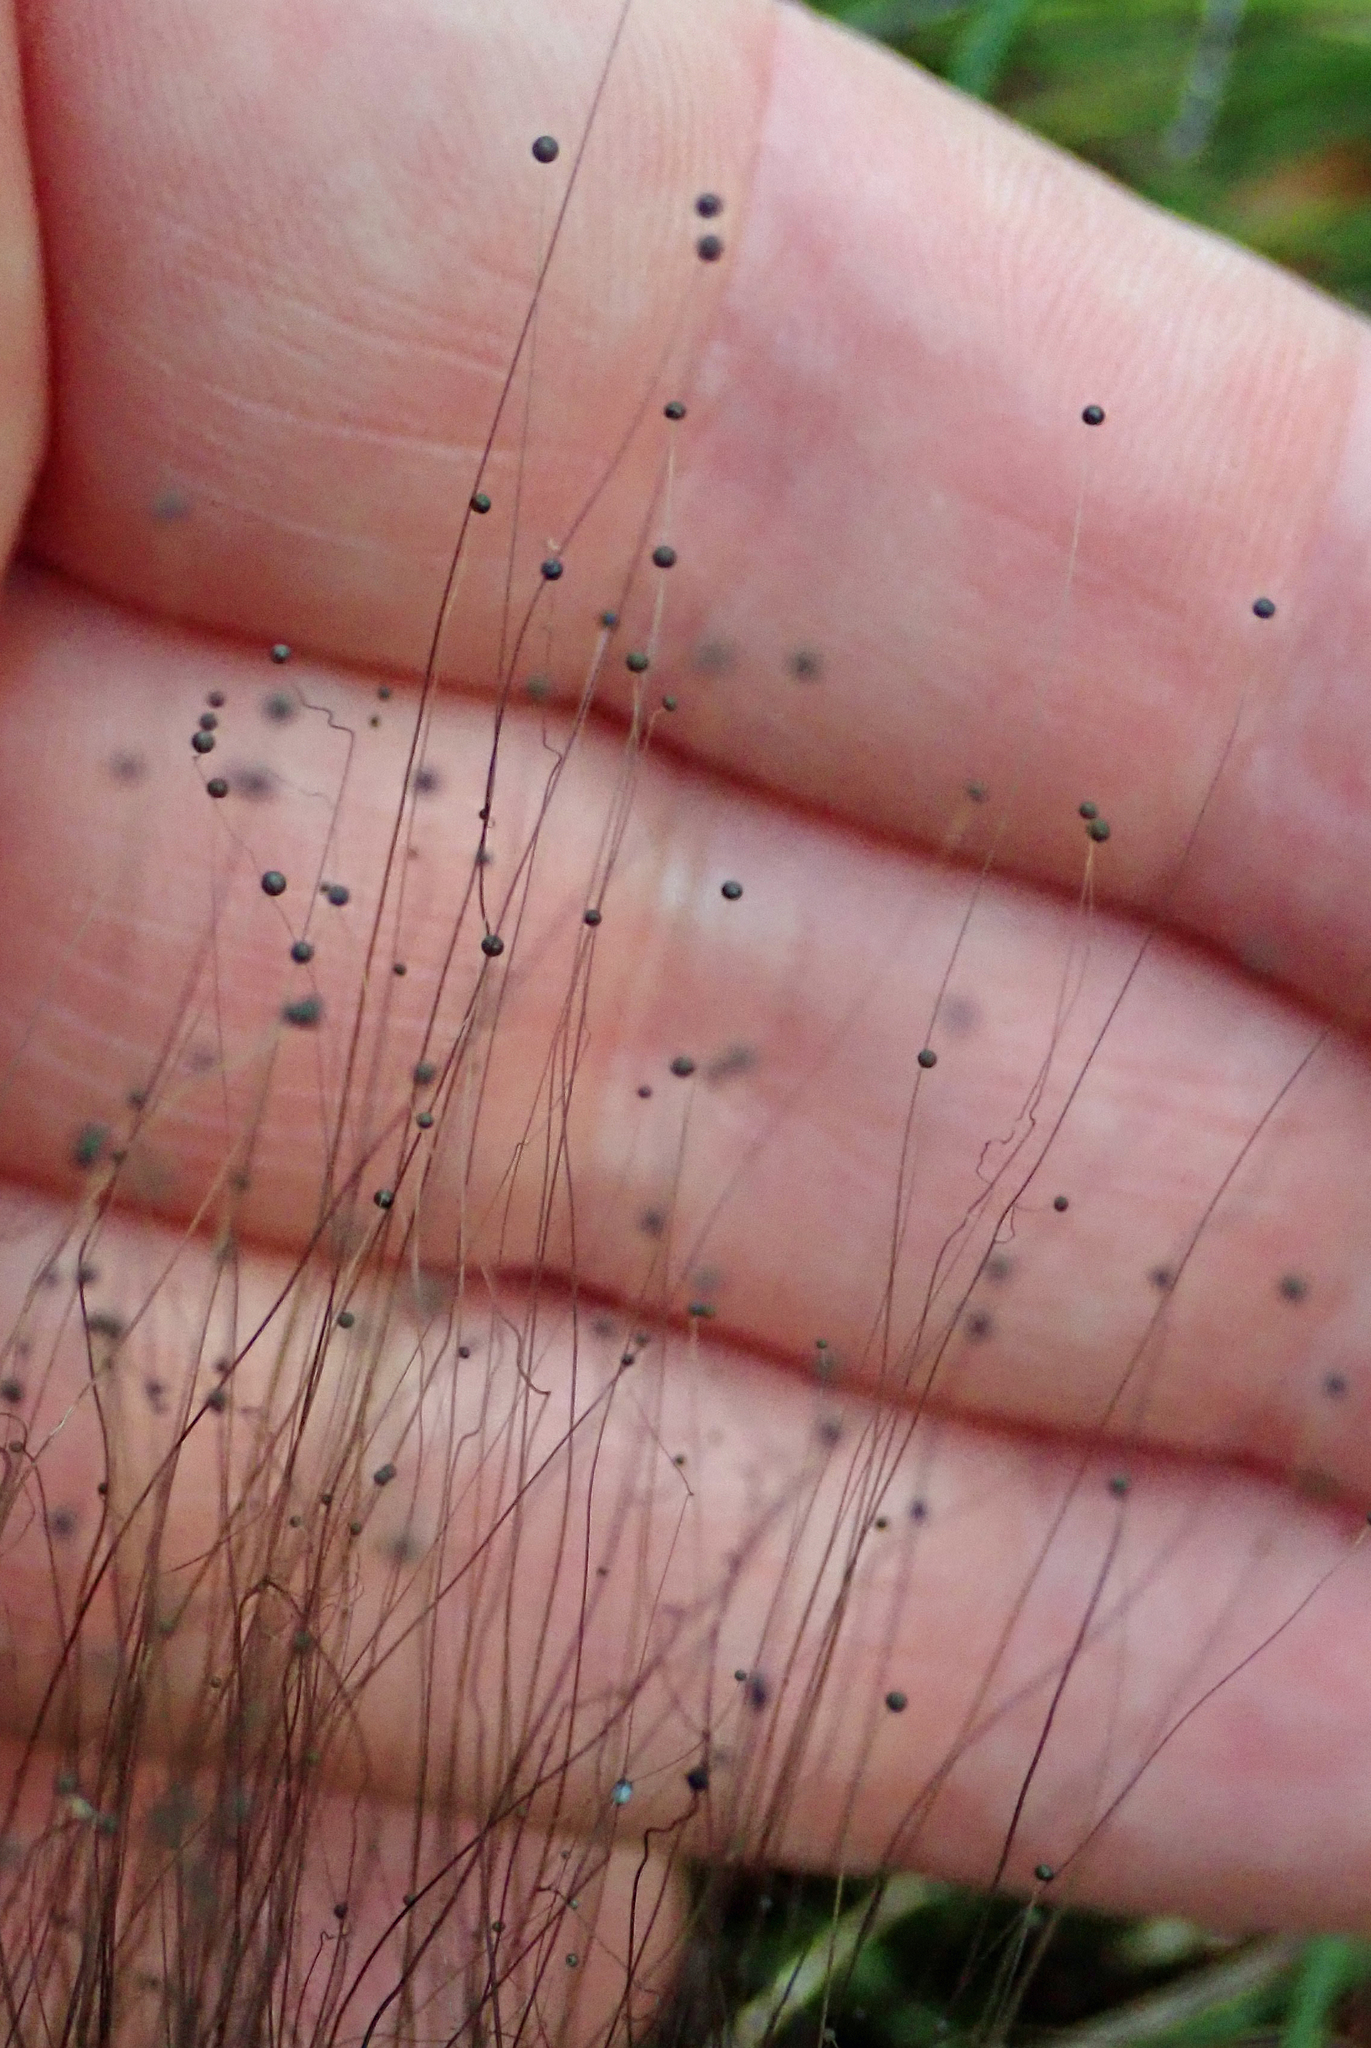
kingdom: Fungi
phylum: Mucoromycota
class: Mucoromycetes
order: Mucorales
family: Phycomycetaceae
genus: Phycomyces
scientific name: Phycomyces
